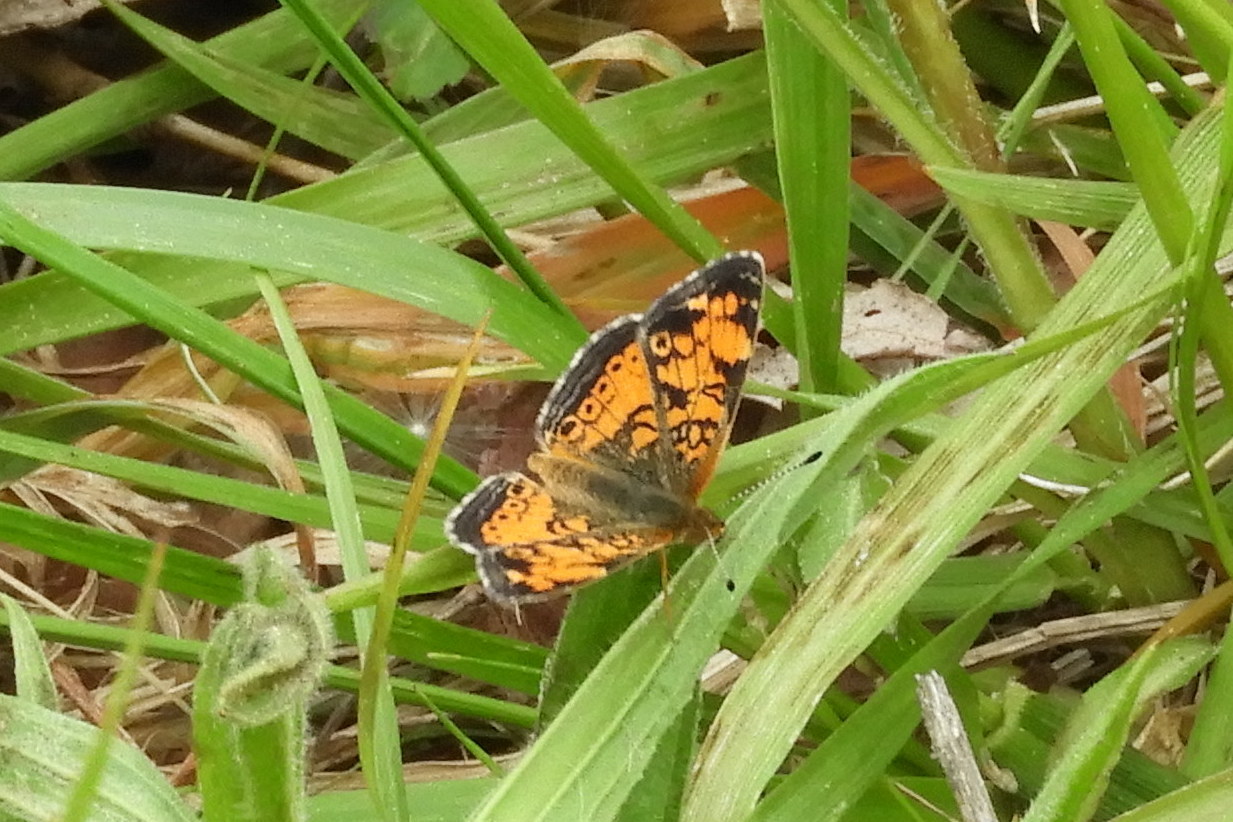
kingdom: Animalia
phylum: Arthropoda
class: Insecta
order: Lepidoptera
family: Nymphalidae
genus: Phyciodes
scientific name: Phyciodes tharos
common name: Pearl crescent
